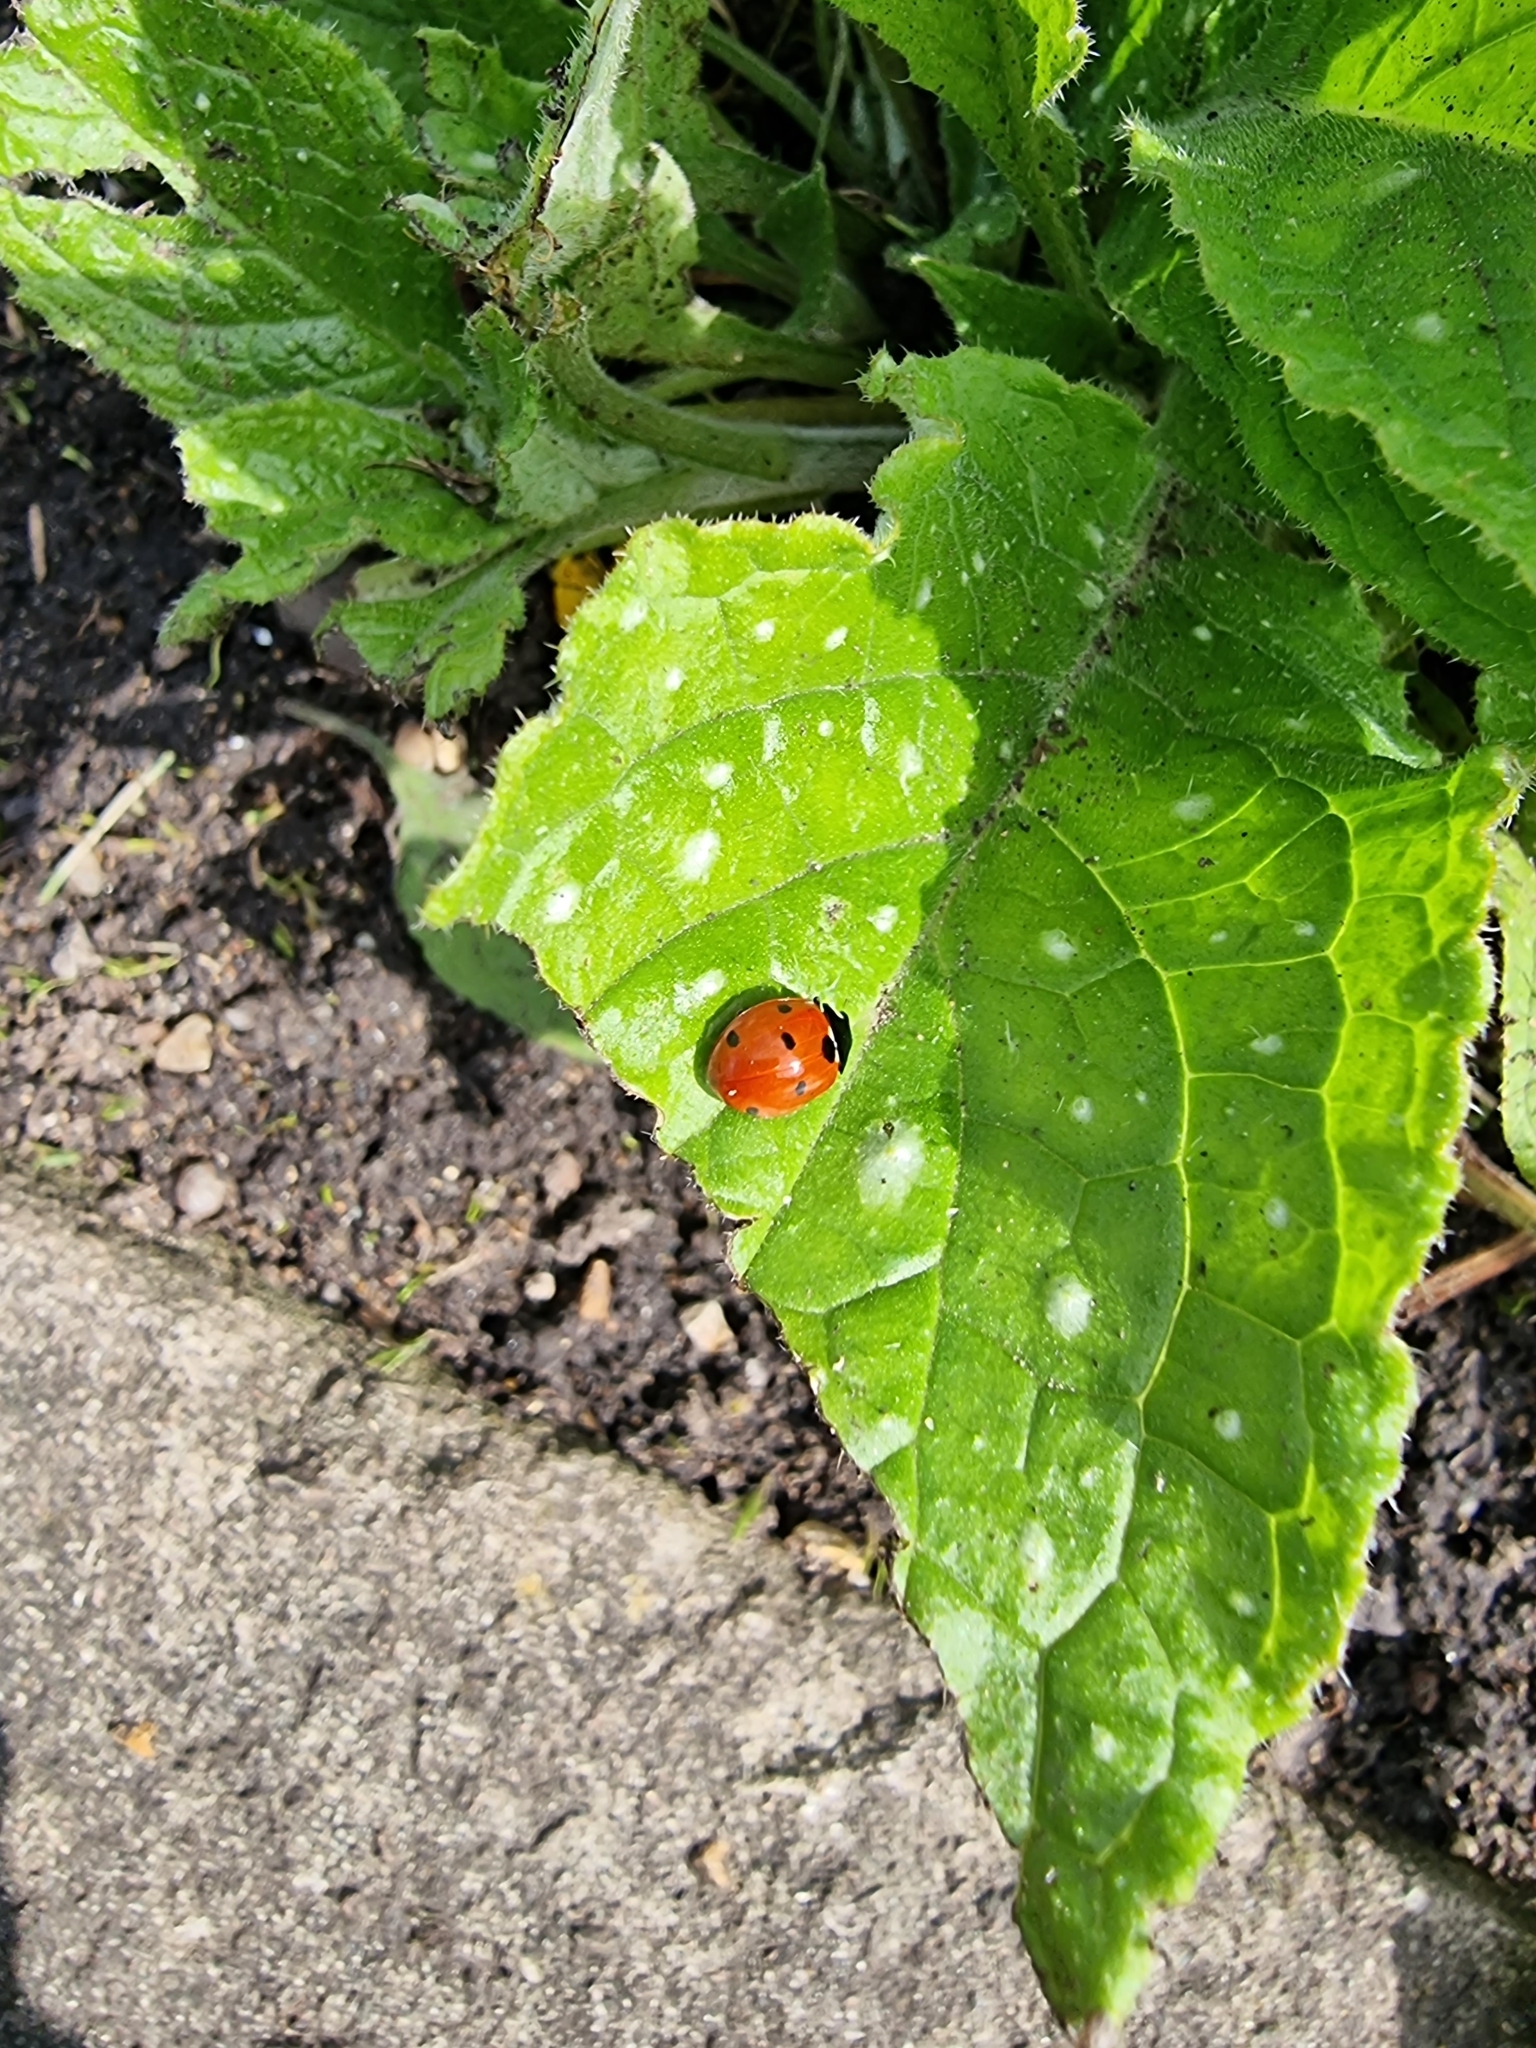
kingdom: Animalia
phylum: Arthropoda
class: Insecta
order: Coleoptera
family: Coccinellidae
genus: Coccinella
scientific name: Coccinella septempunctata
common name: Sevenspotted lady beetle
